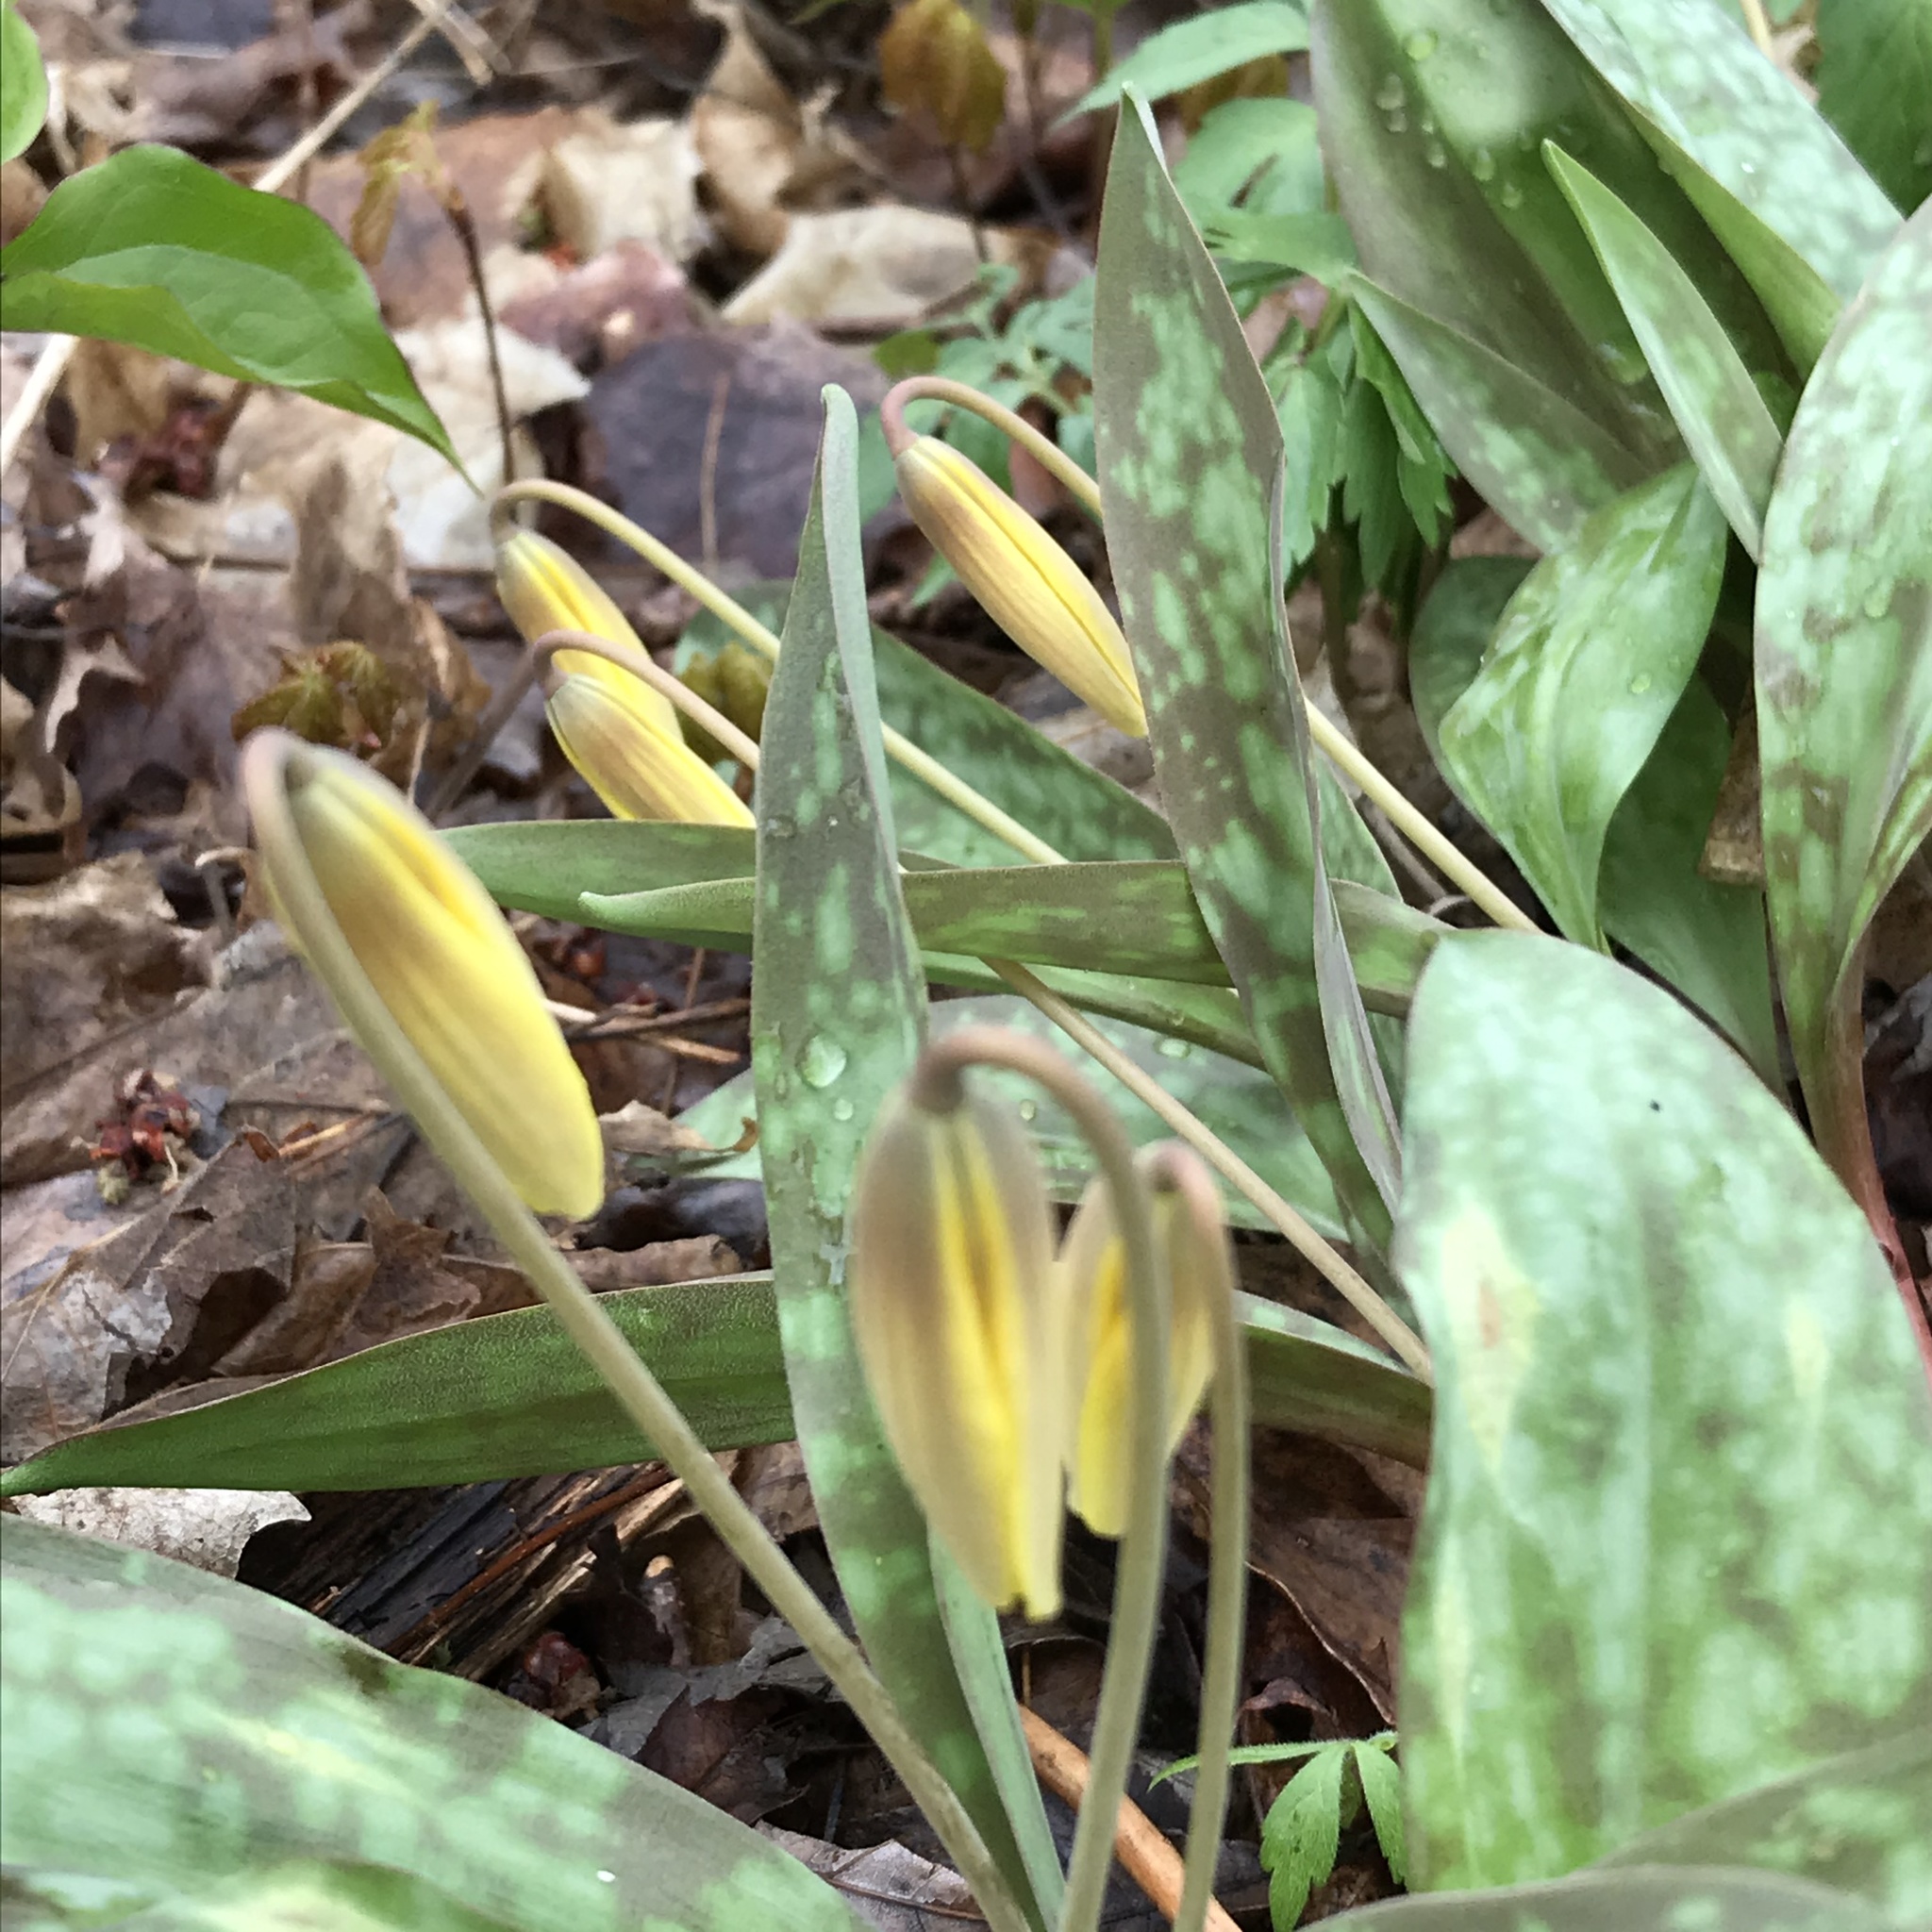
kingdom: Plantae
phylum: Tracheophyta
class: Liliopsida
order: Liliales
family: Liliaceae
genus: Erythronium
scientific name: Erythronium americanum
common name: Yellow adder's-tongue
